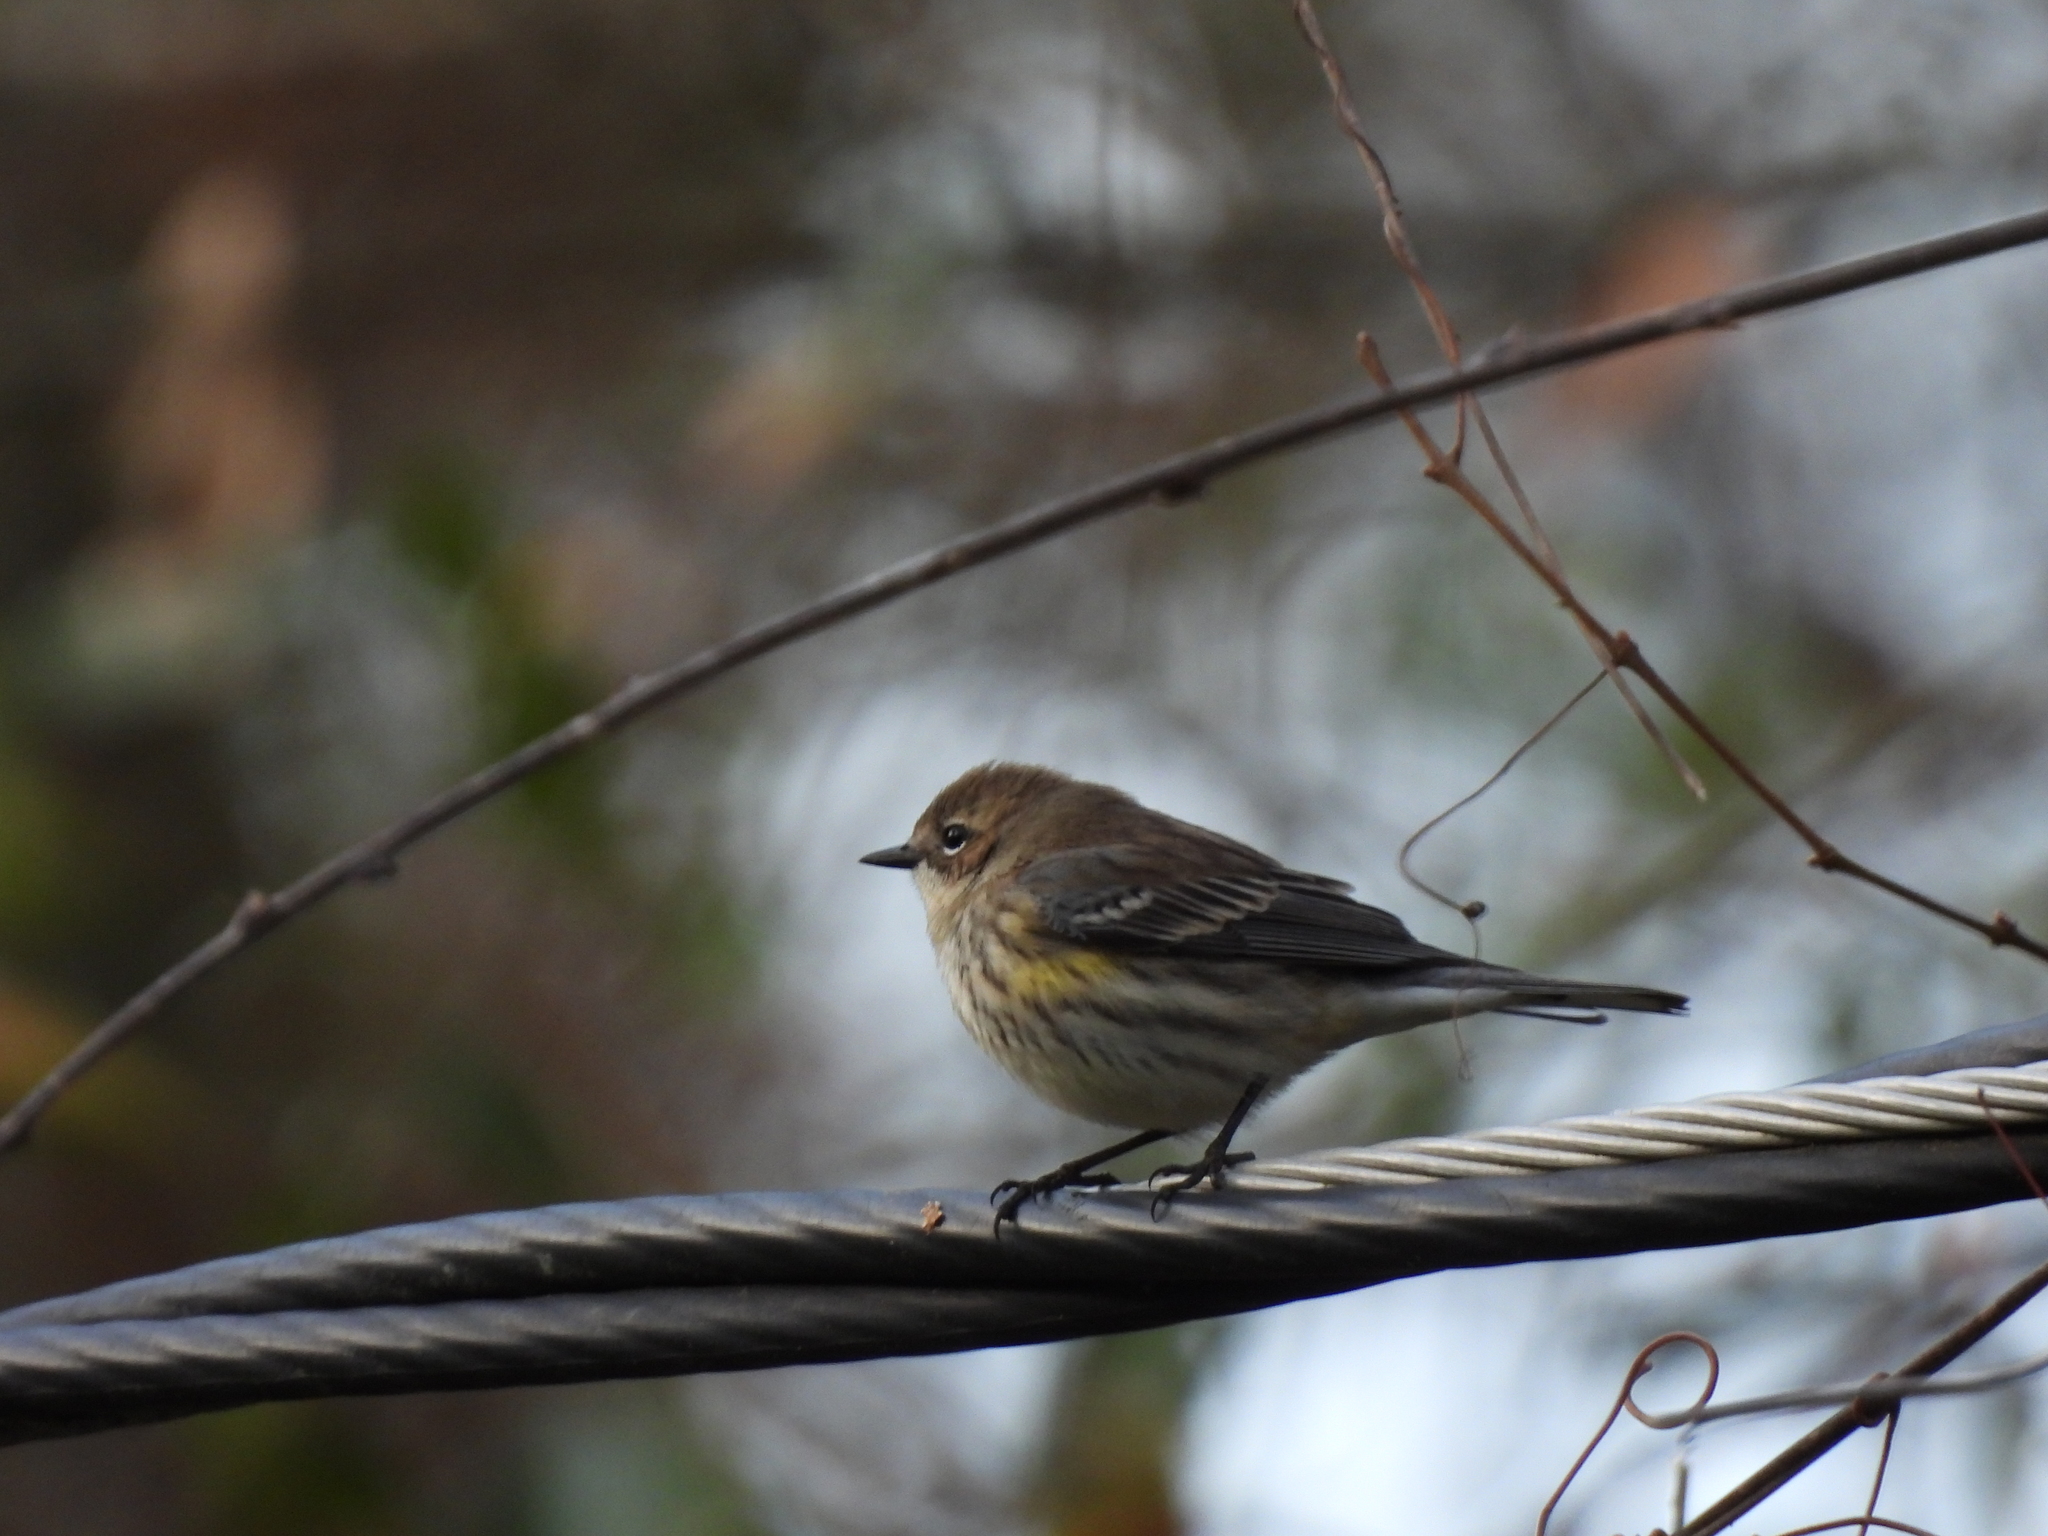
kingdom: Animalia
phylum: Chordata
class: Aves
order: Passeriformes
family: Parulidae
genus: Setophaga
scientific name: Setophaga coronata
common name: Myrtle warbler
